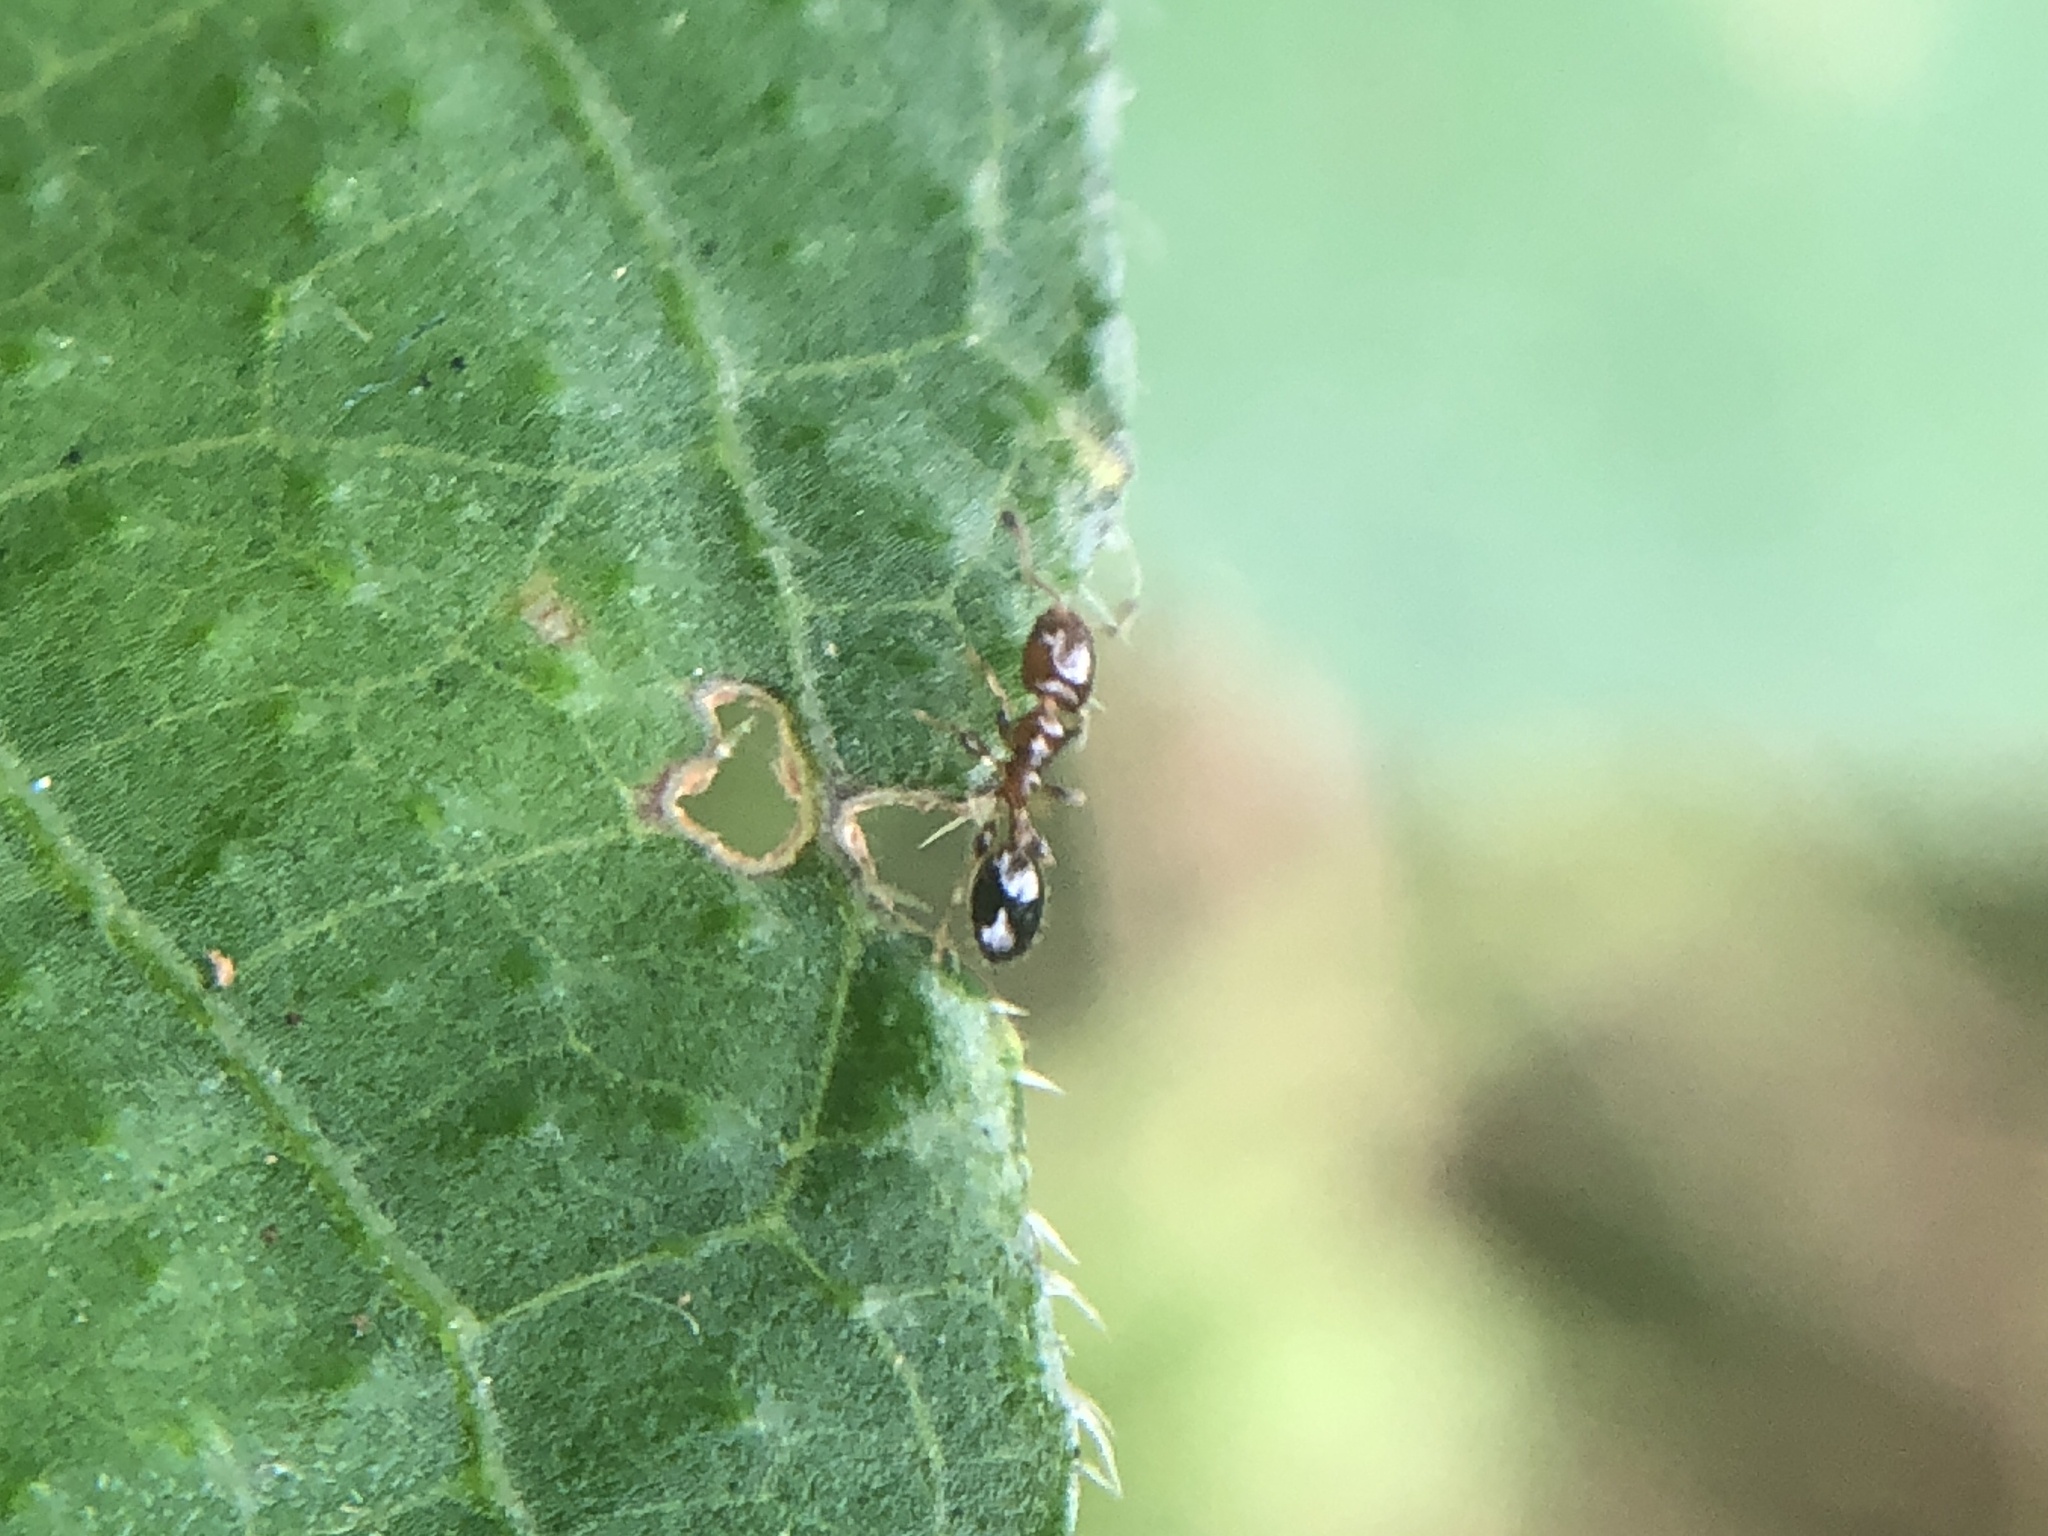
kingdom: Animalia
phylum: Arthropoda
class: Insecta
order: Hymenoptera
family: Formicidae
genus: Xenomyrmex
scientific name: Xenomyrmex floridanus
